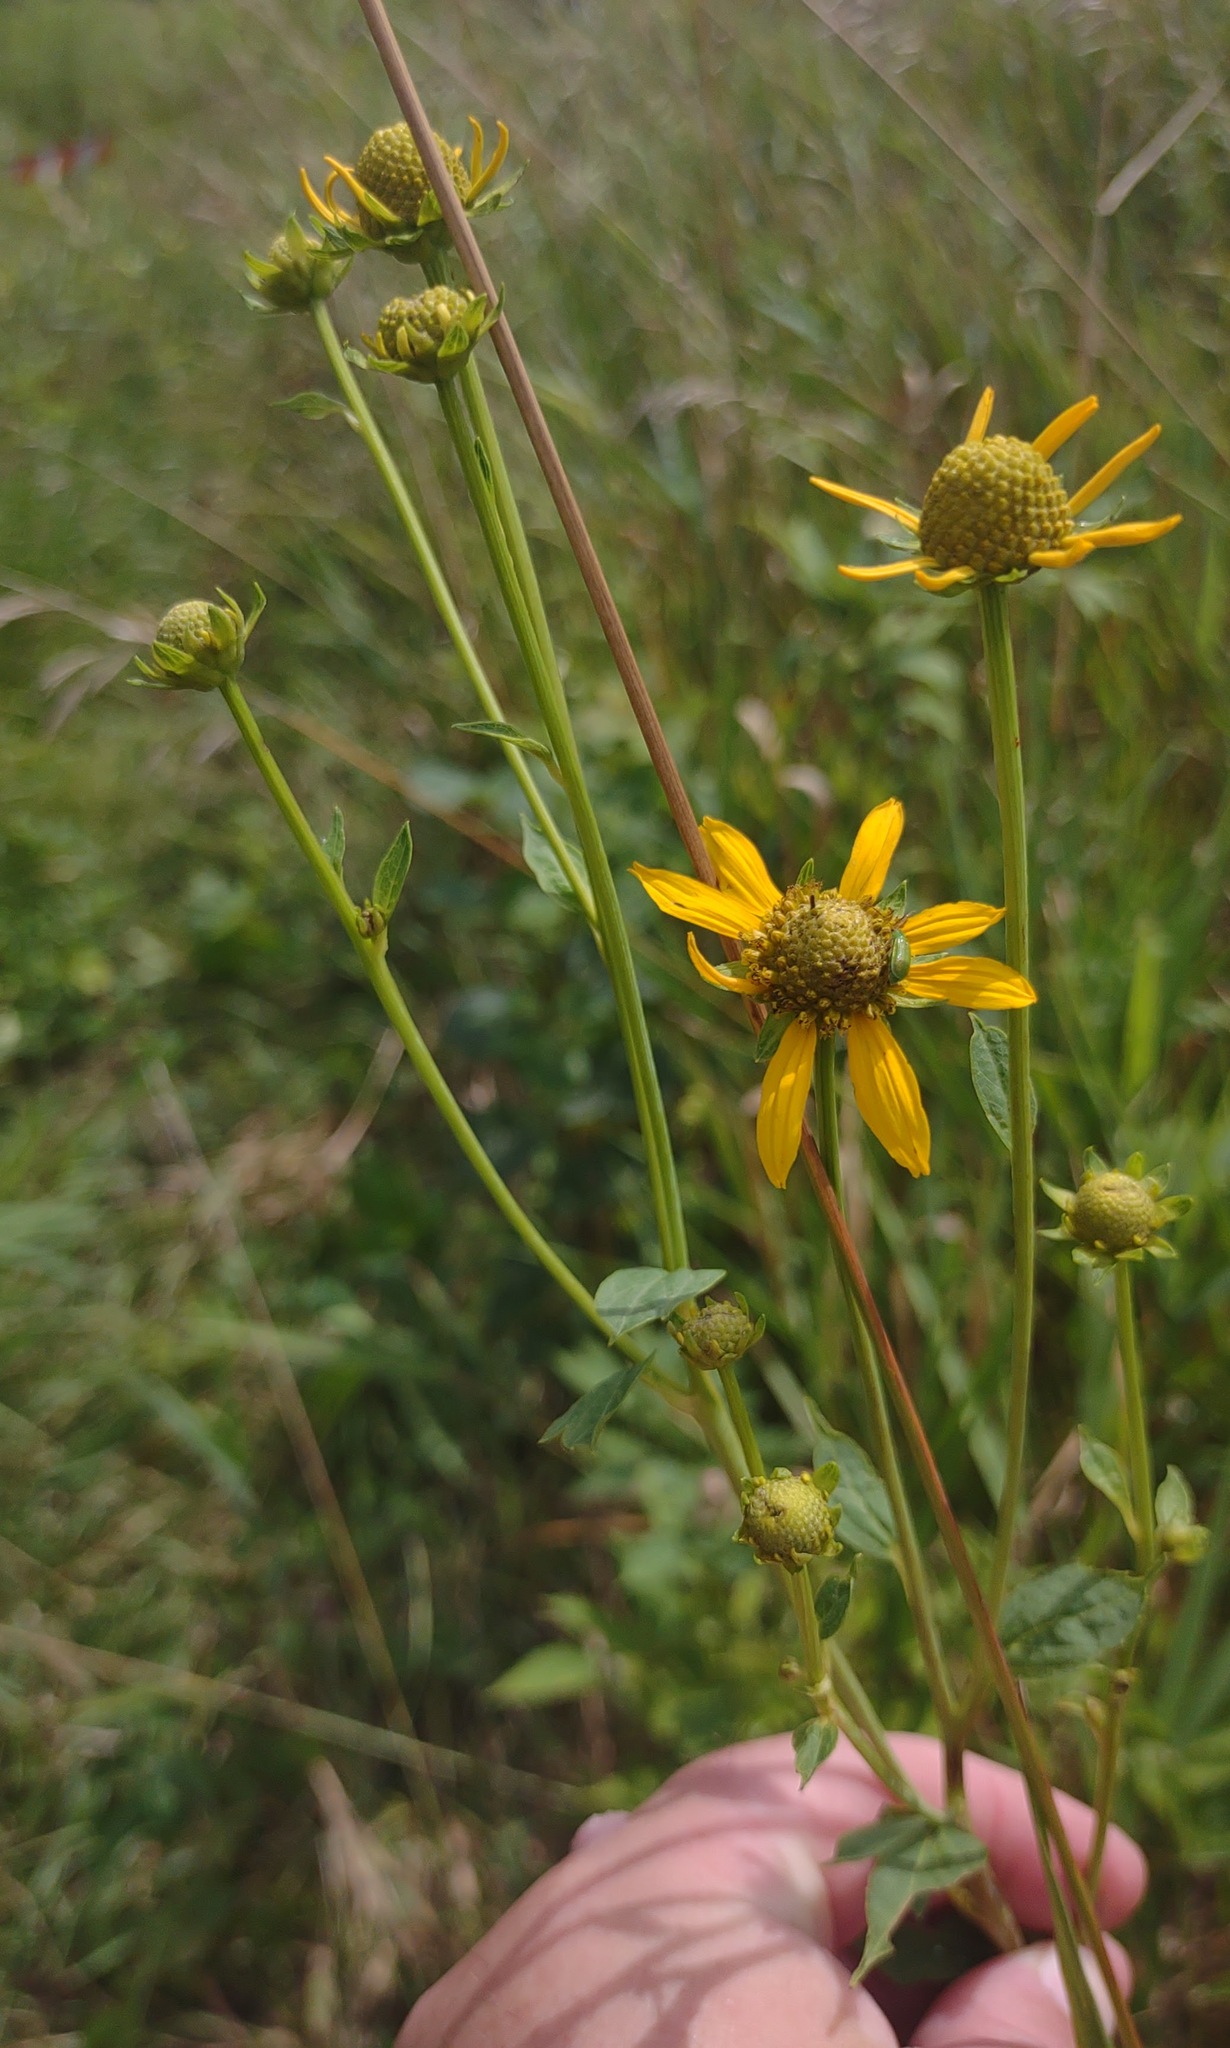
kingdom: Plantae
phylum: Tracheophyta
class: Magnoliopsida
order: Asterales
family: Asteraceae
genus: Rudbeckia
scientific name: Rudbeckia laciniata
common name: Coneflower
